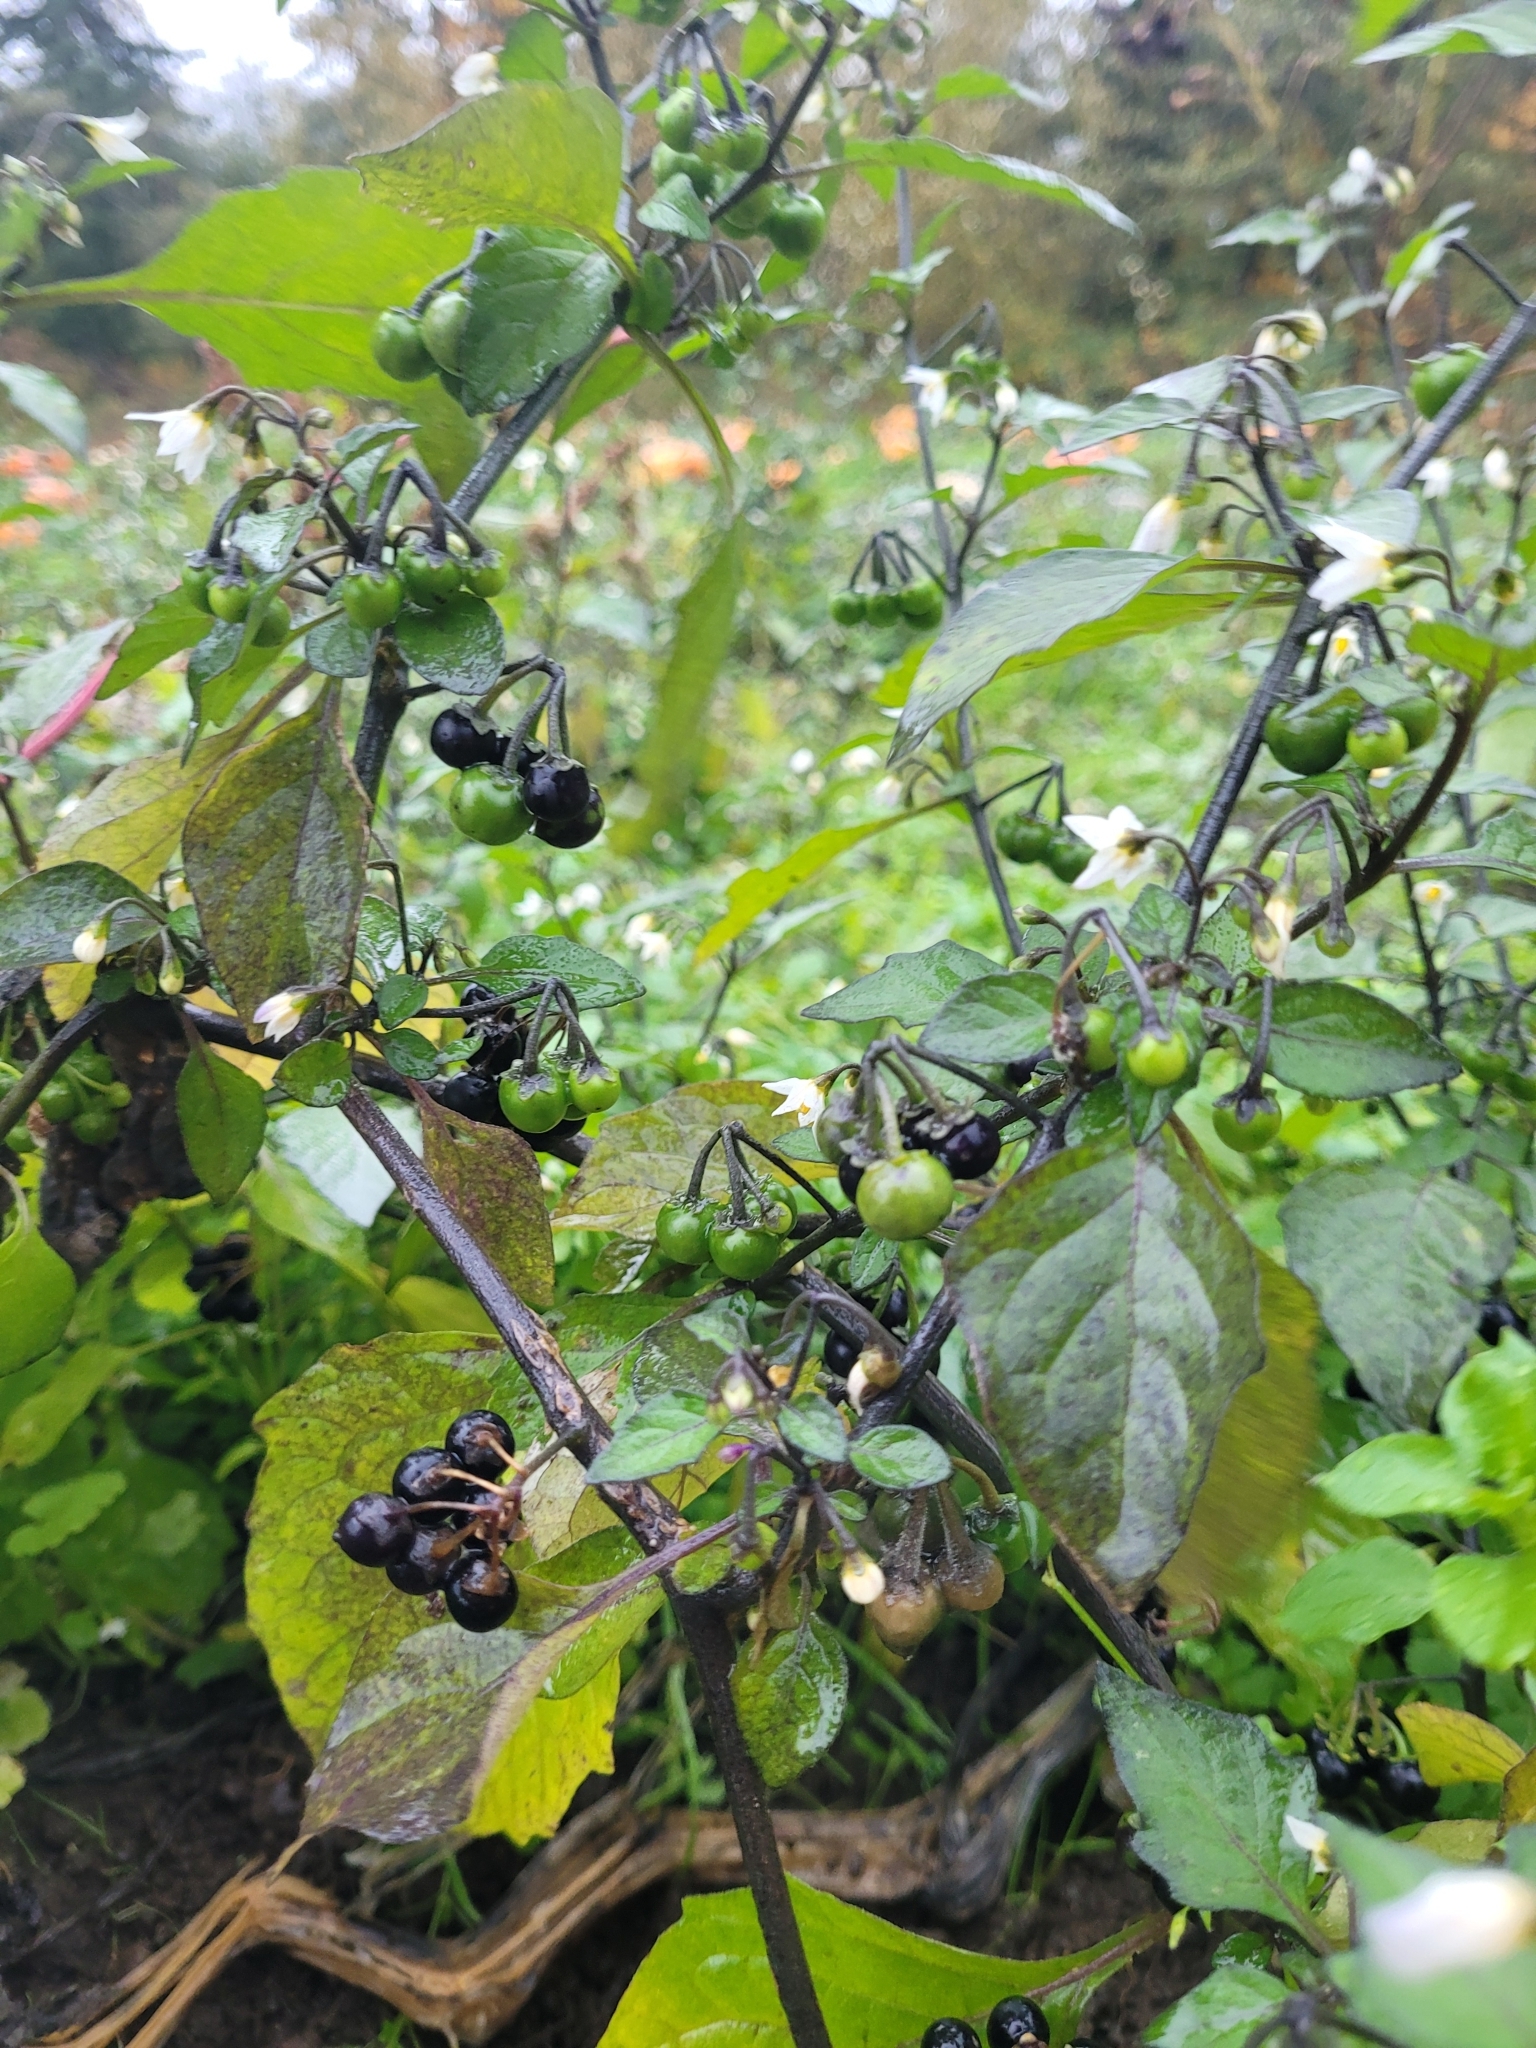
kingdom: Plantae
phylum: Tracheophyta
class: Magnoliopsida
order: Solanales
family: Solanaceae
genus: Solanum
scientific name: Solanum nigrum
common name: Black nightshade
